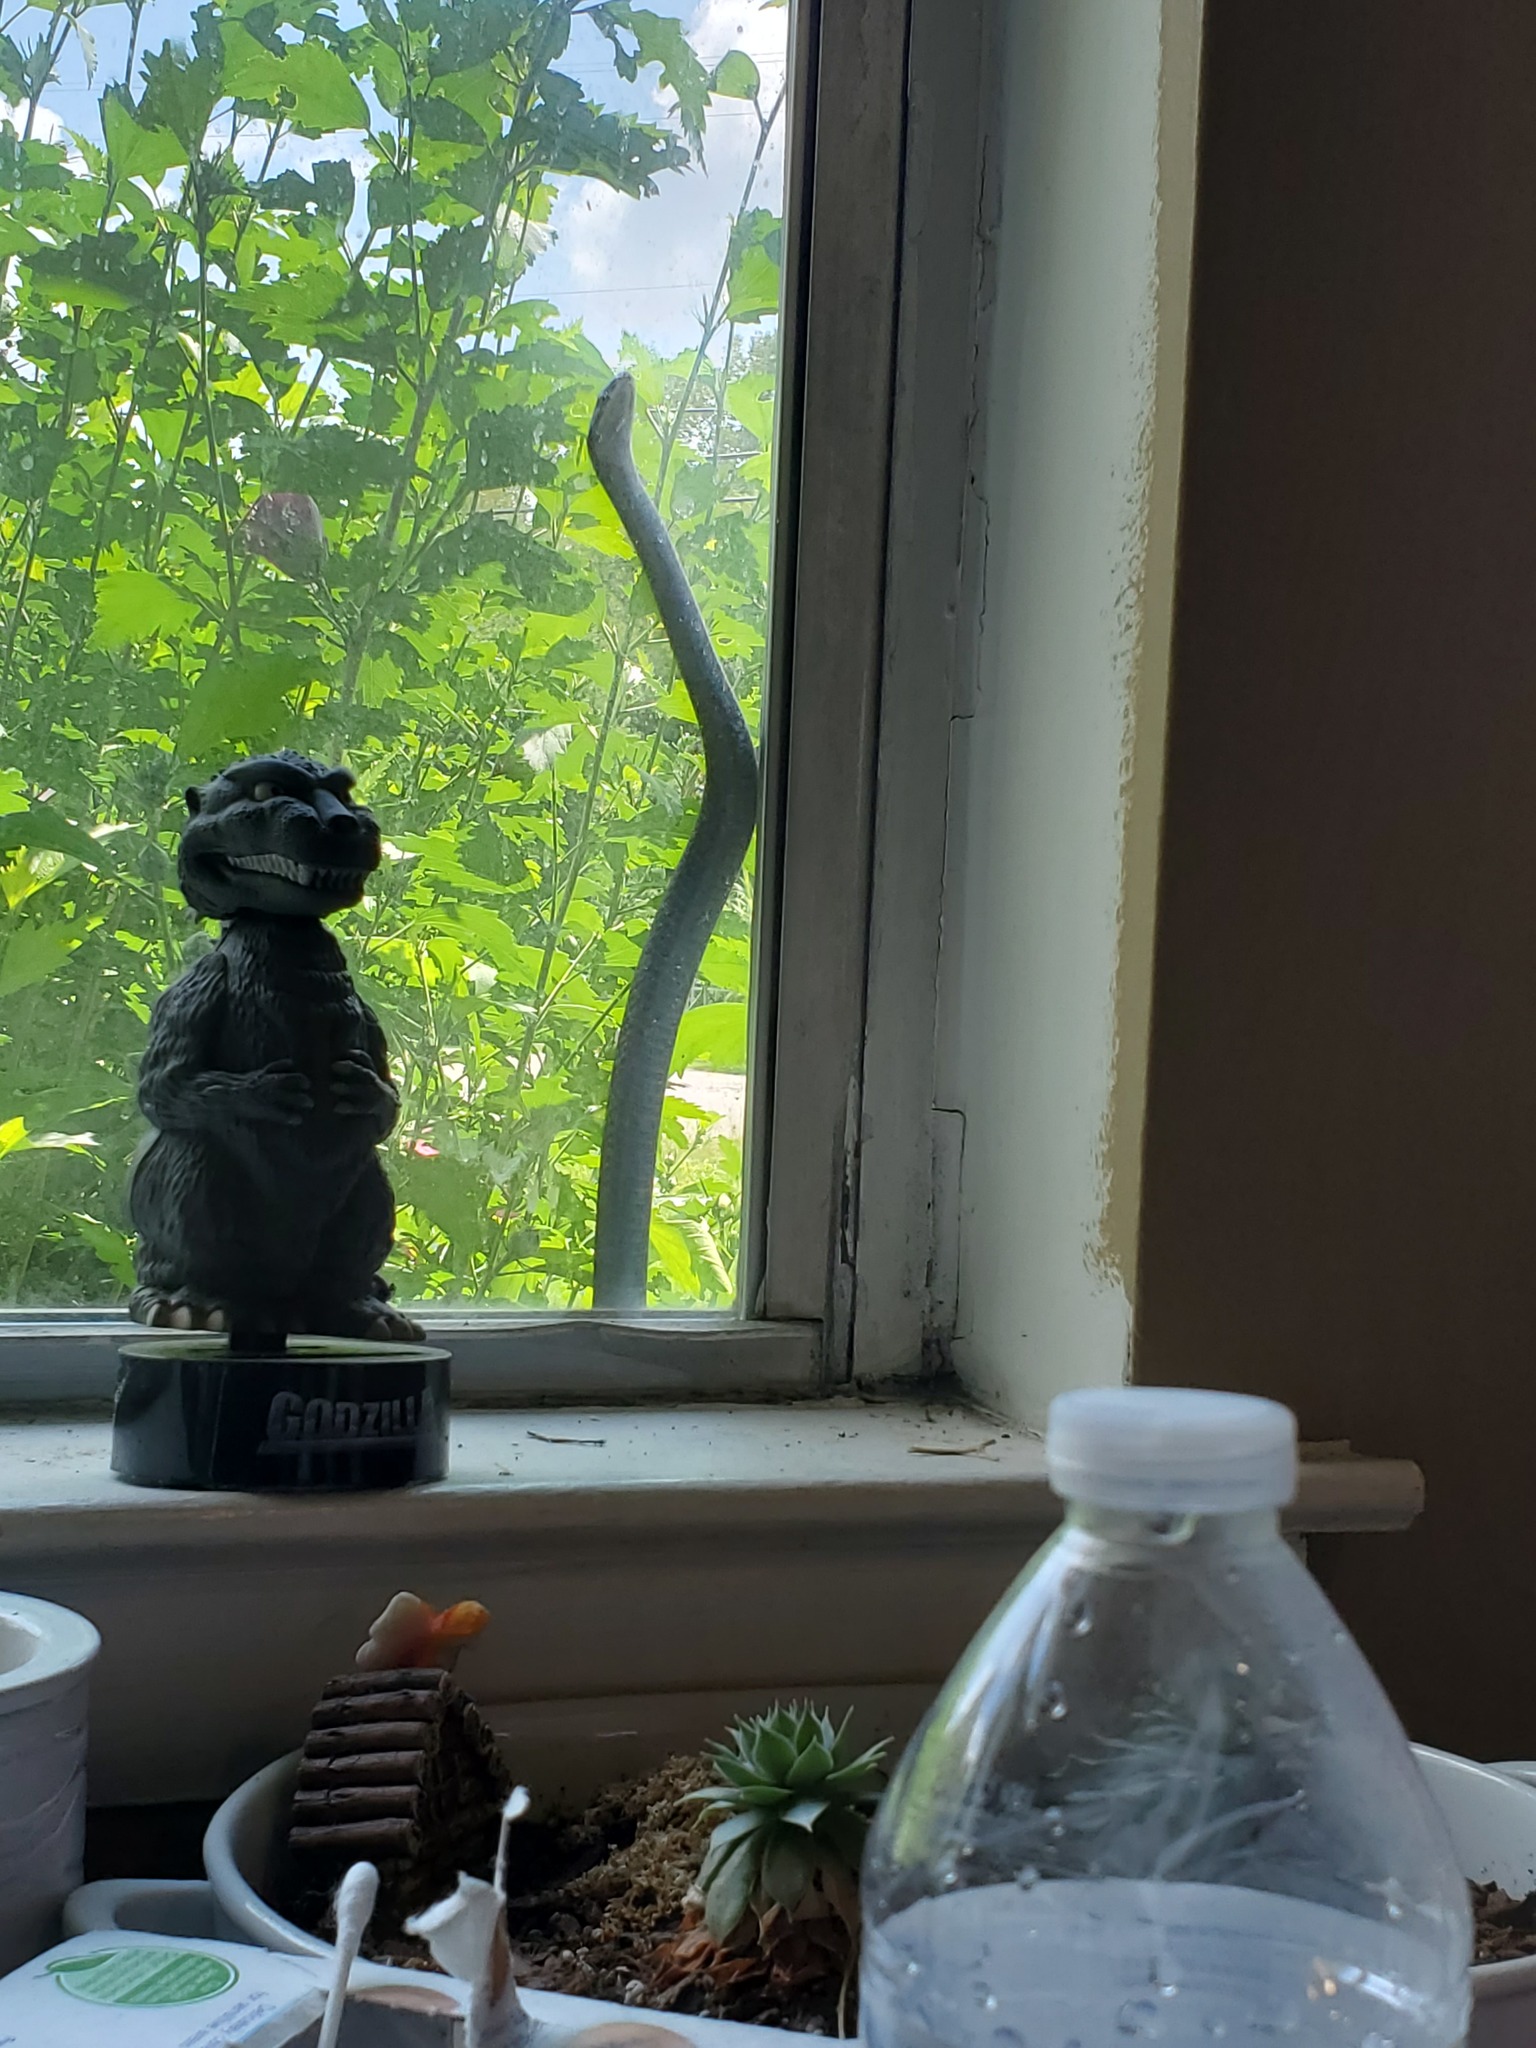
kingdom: Animalia
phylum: Chordata
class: Squamata
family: Colubridae
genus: Pantherophis
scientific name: Pantherophis spiloides
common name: Gray rat snake
